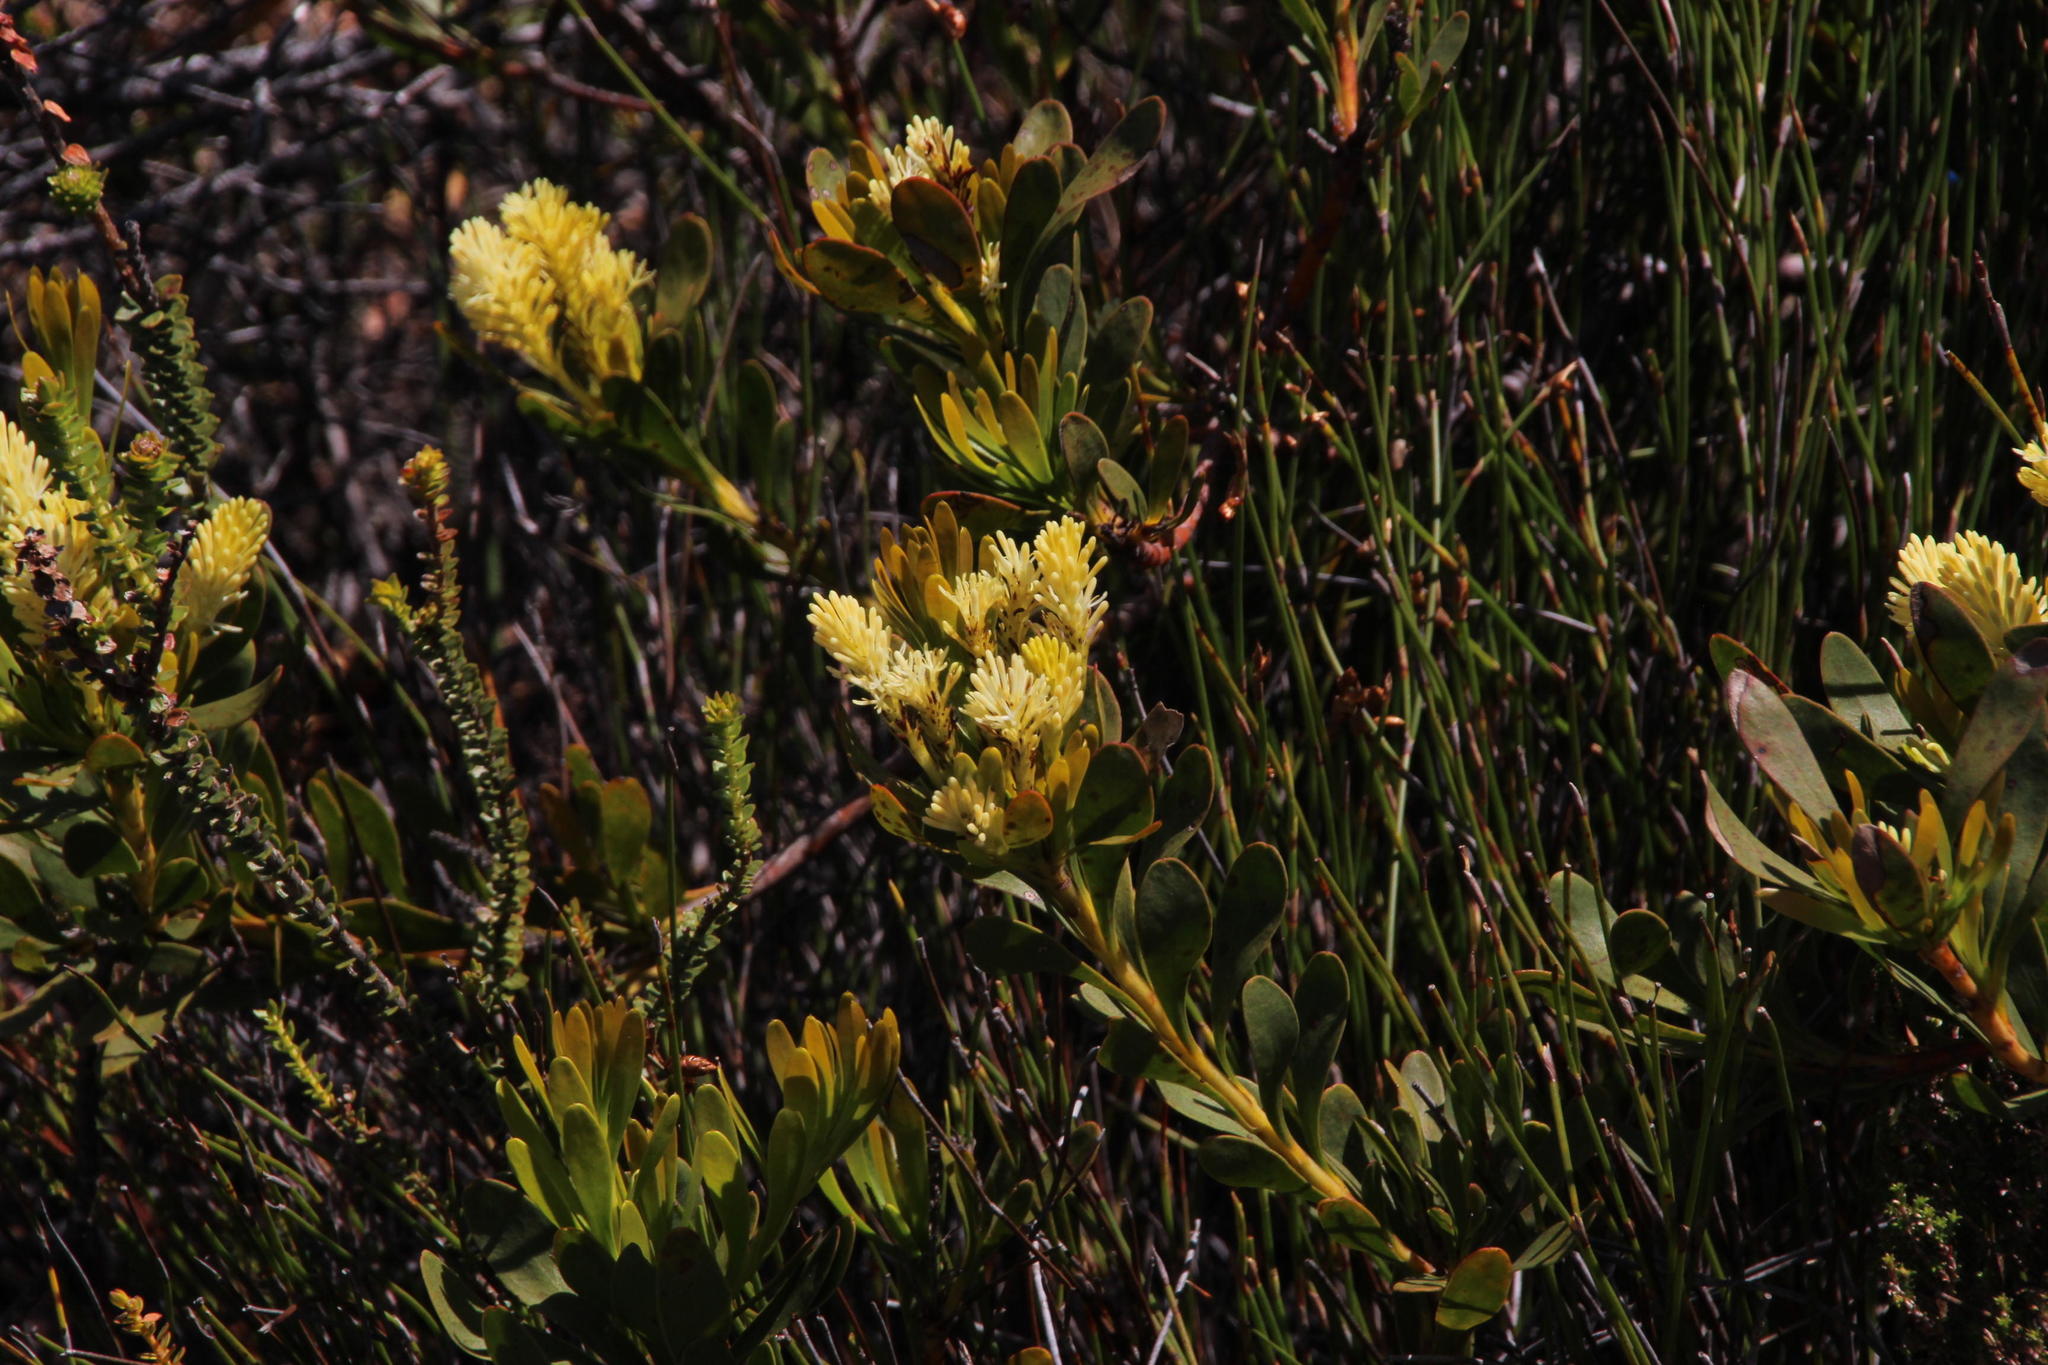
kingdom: Plantae
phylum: Tracheophyta
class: Magnoliopsida
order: Proteales
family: Proteaceae
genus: Aulax
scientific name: Aulax umbellata
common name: Broad-leaf featherbush
